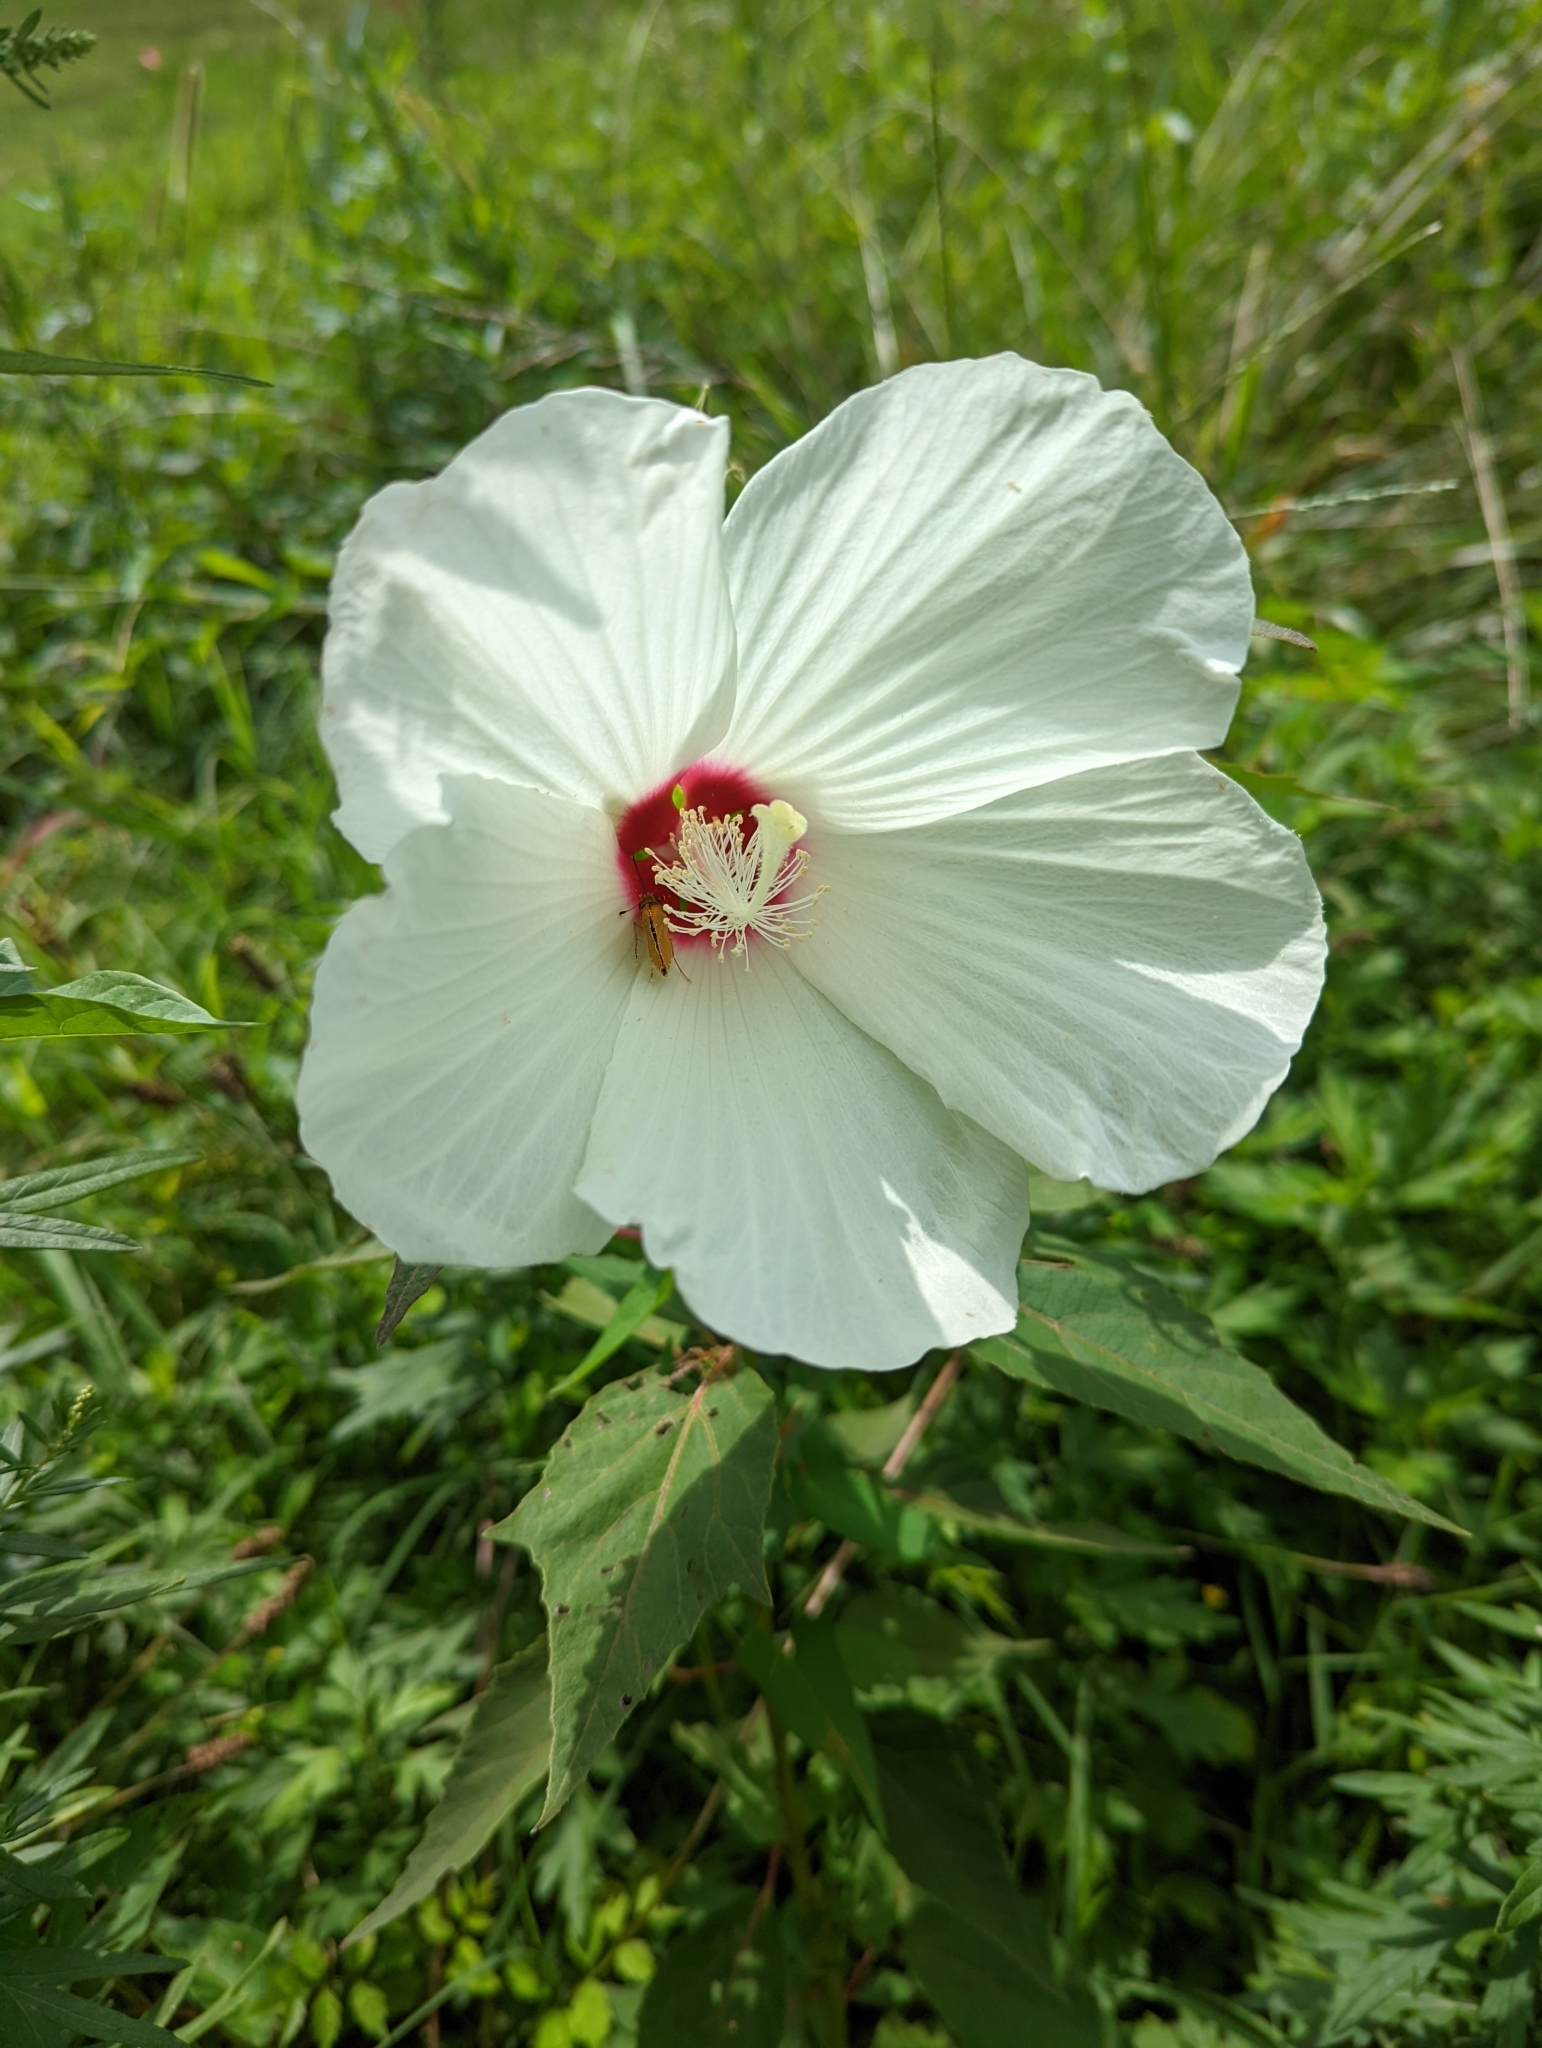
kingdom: Plantae
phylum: Tracheophyta
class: Magnoliopsida
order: Malvales
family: Malvaceae
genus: Hibiscus
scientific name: Hibiscus moscheutos
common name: Common rose-mallow
